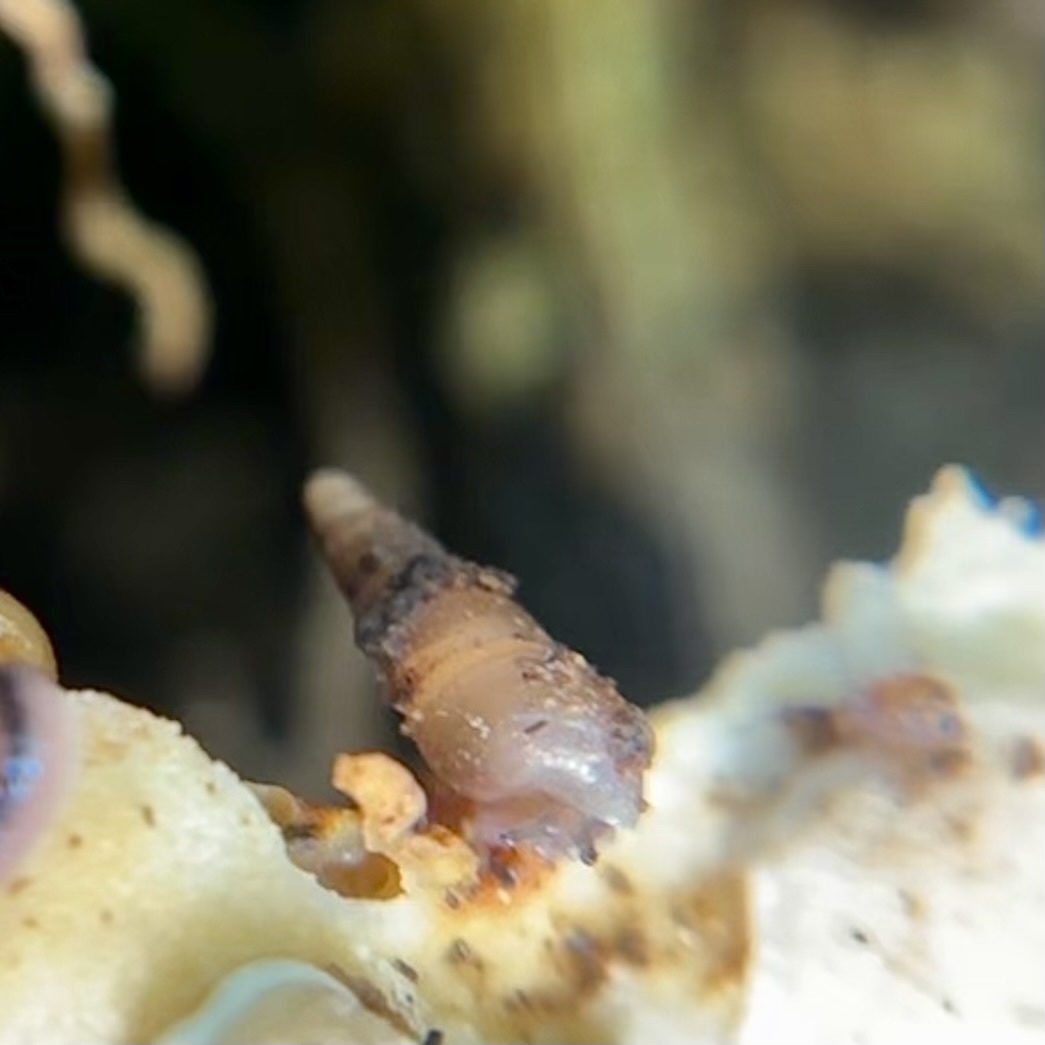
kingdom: Animalia
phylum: Mollusca
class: Gastropoda
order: Stylommatophora
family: Clausiliidae
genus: Tauphaedusa
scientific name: Tauphaedusa tau
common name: Snail
